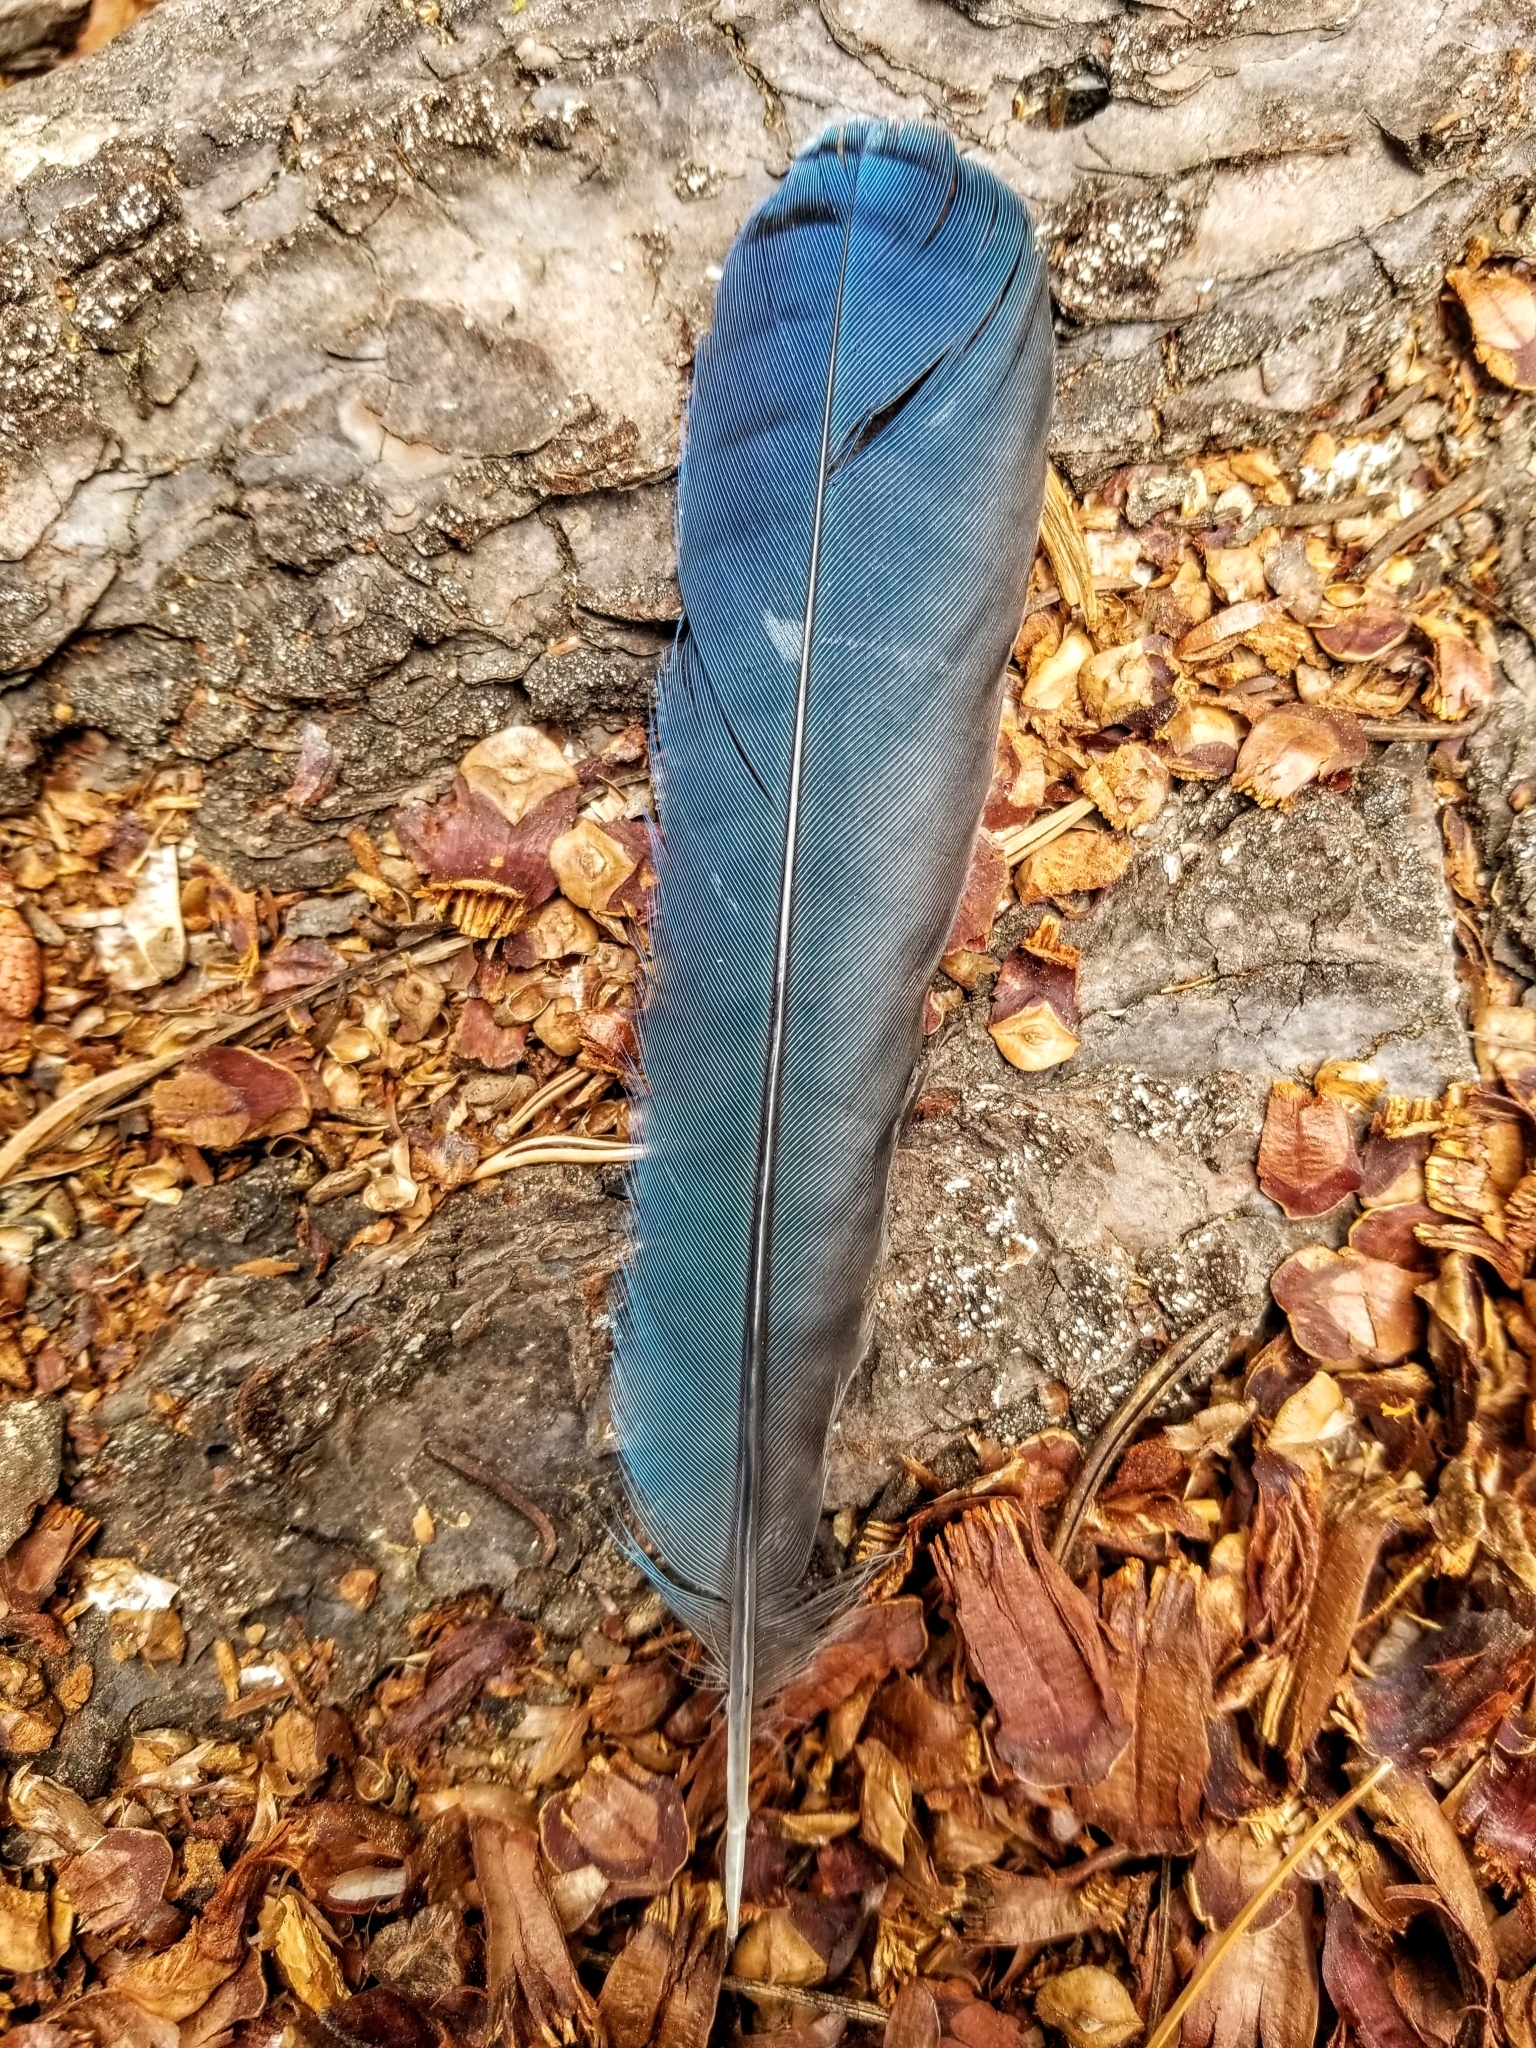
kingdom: Animalia
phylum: Chordata
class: Aves
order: Passeriformes
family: Corvidae
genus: Cyanocitta
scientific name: Cyanocitta stelleri
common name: Steller's jay
